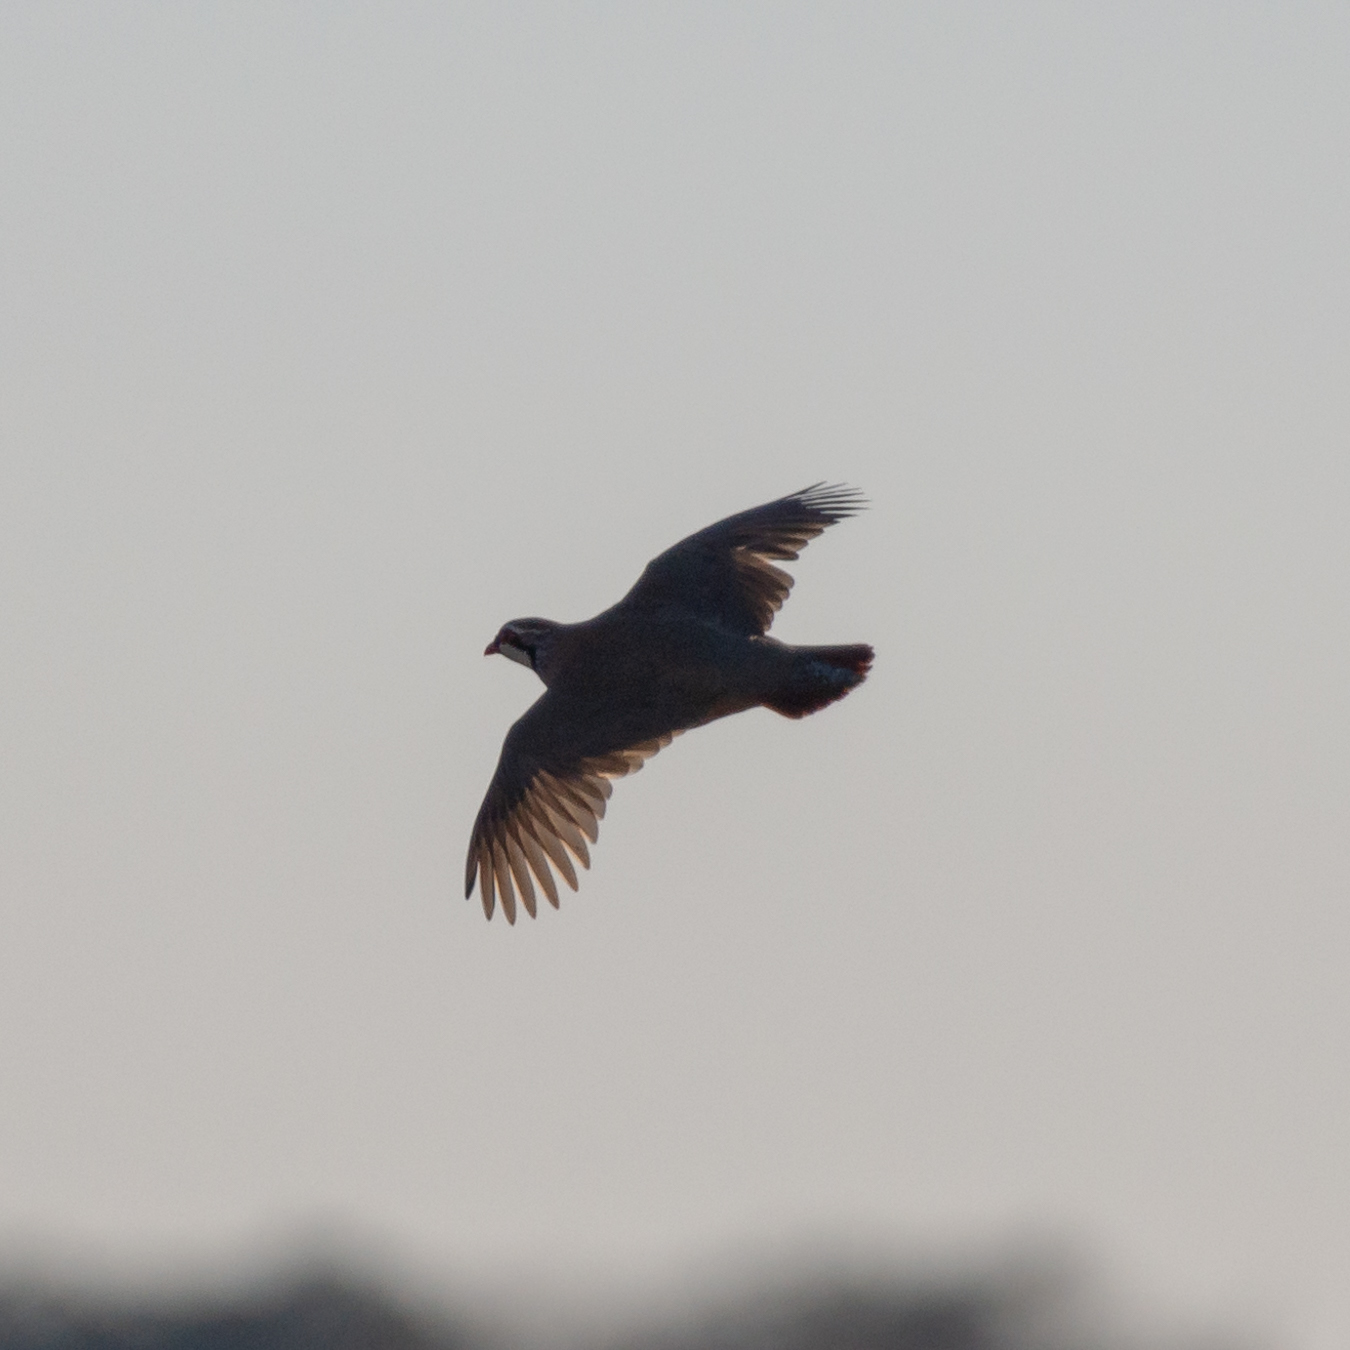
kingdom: Animalia
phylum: Chordata
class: Aves
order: Galliformes
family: Phasianidae
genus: Alectoris
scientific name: Alectoris rufa
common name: Red-legged partridge
